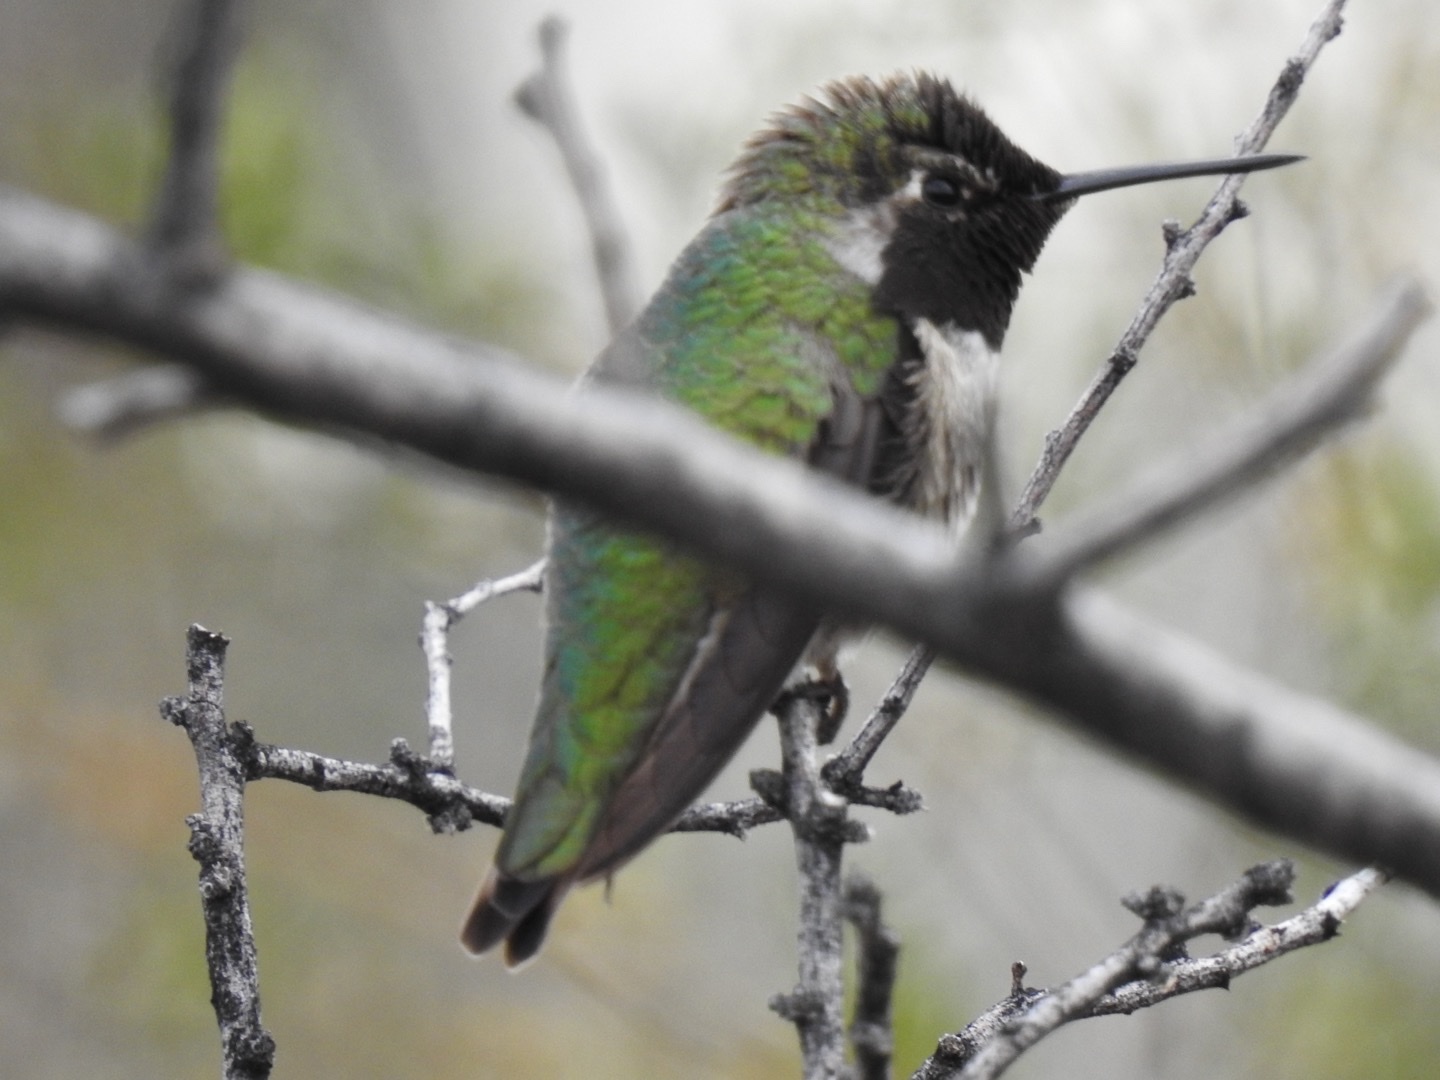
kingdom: Animalia
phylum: Chordata
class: Aves
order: Apodiformes
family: Trochilidae
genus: Calypte
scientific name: Calypte anna
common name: Anna's hummingbird
